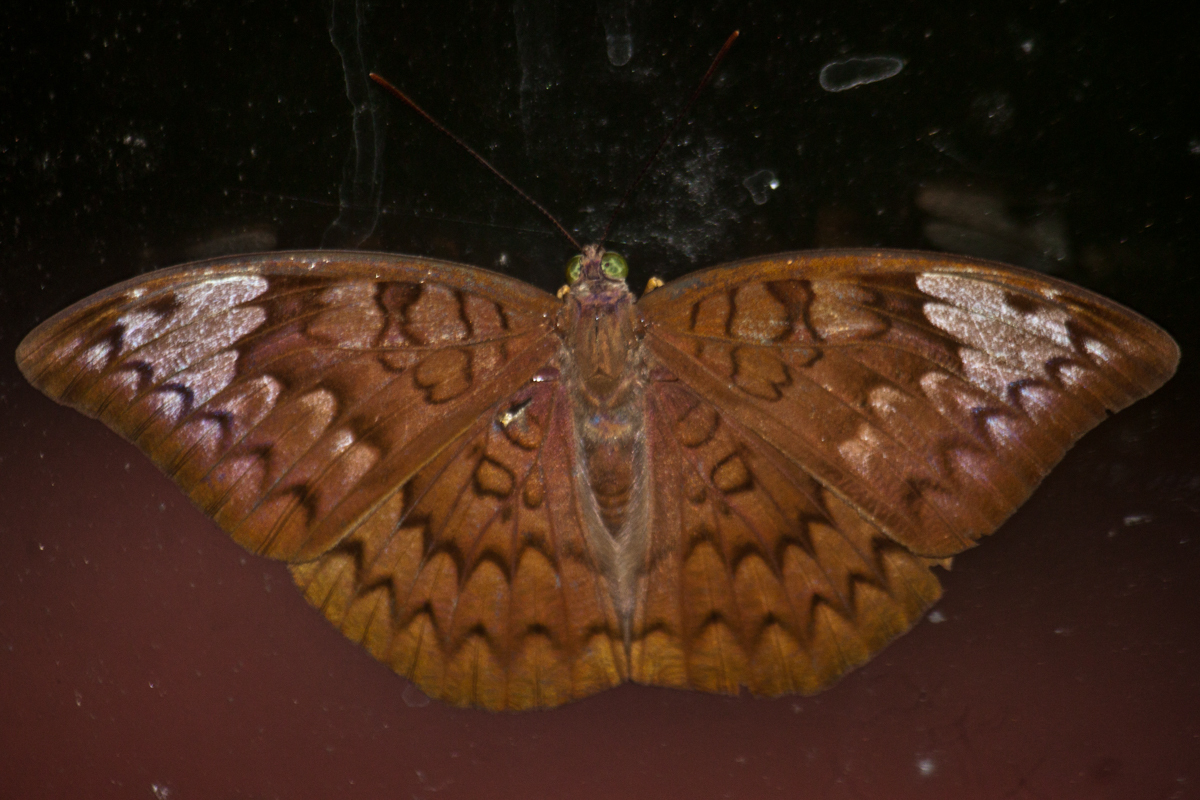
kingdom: Animalia
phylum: Arthropoda
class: Insecta
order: Lepidoptera
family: Nymphalidae
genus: Tanaecia
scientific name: Tanaecia jahnu
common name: Plain earl
